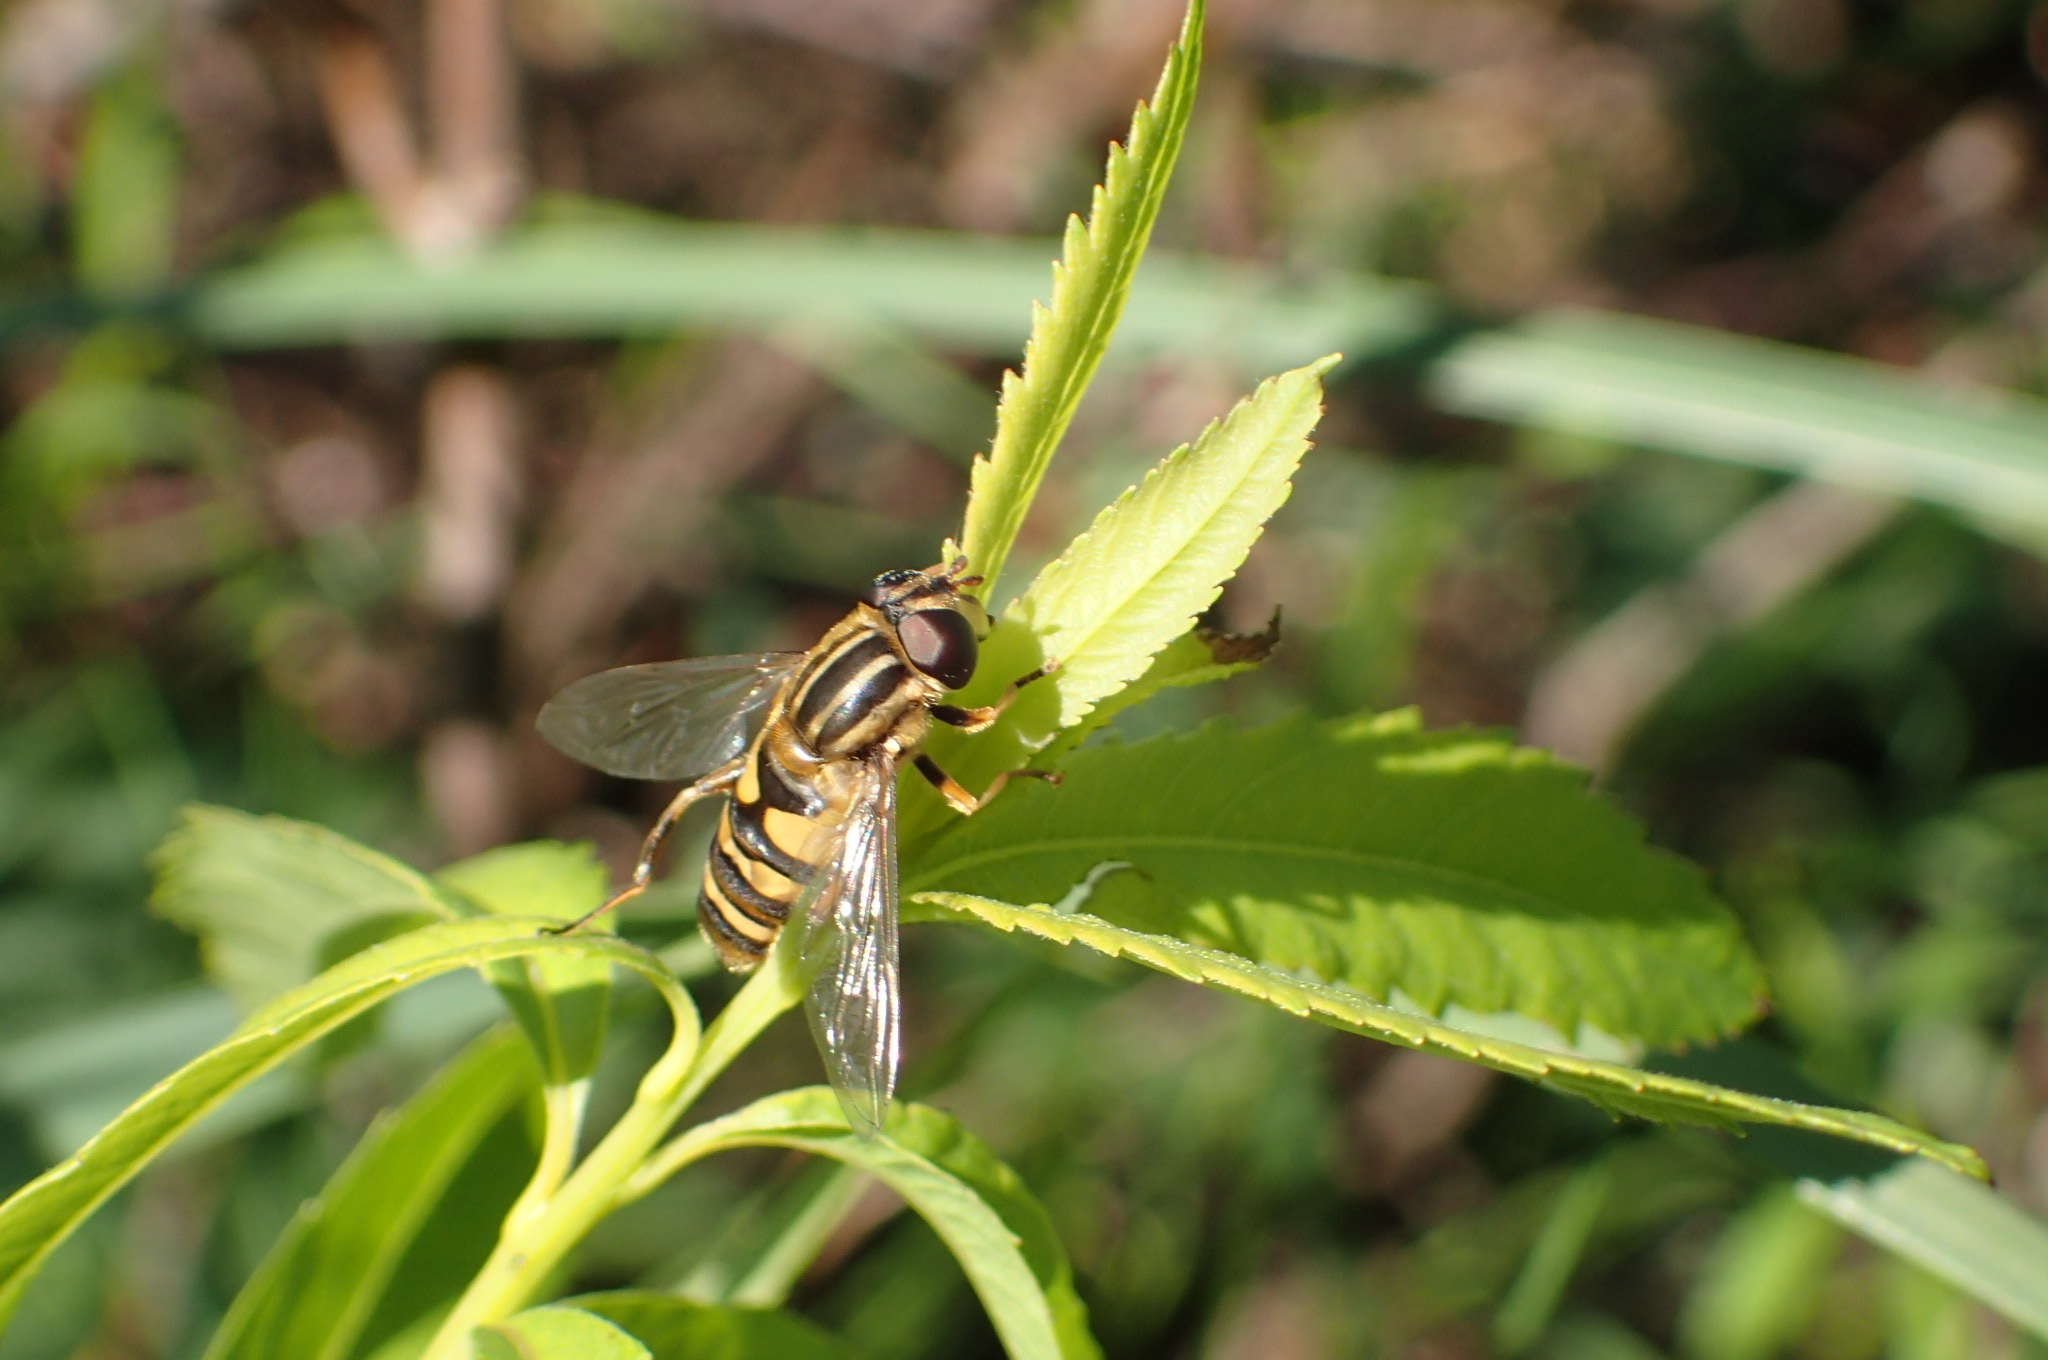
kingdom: Animalia
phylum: Arthropoda
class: Insecta
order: Diptera
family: Syrphidae
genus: Helophilus
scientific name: Helophilus fasciatus
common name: Narrow-headed marsh fly
